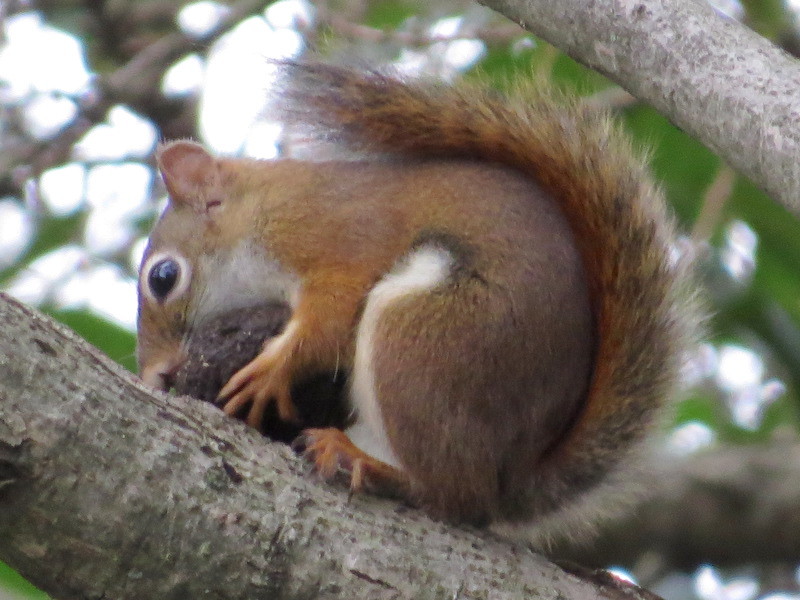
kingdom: Animalia
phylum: Chordata
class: Mammalia
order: Rodentia
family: Sciuridae
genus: Tamiasciurus
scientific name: Tamiasciurus hudsonicus
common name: Red squirrel
